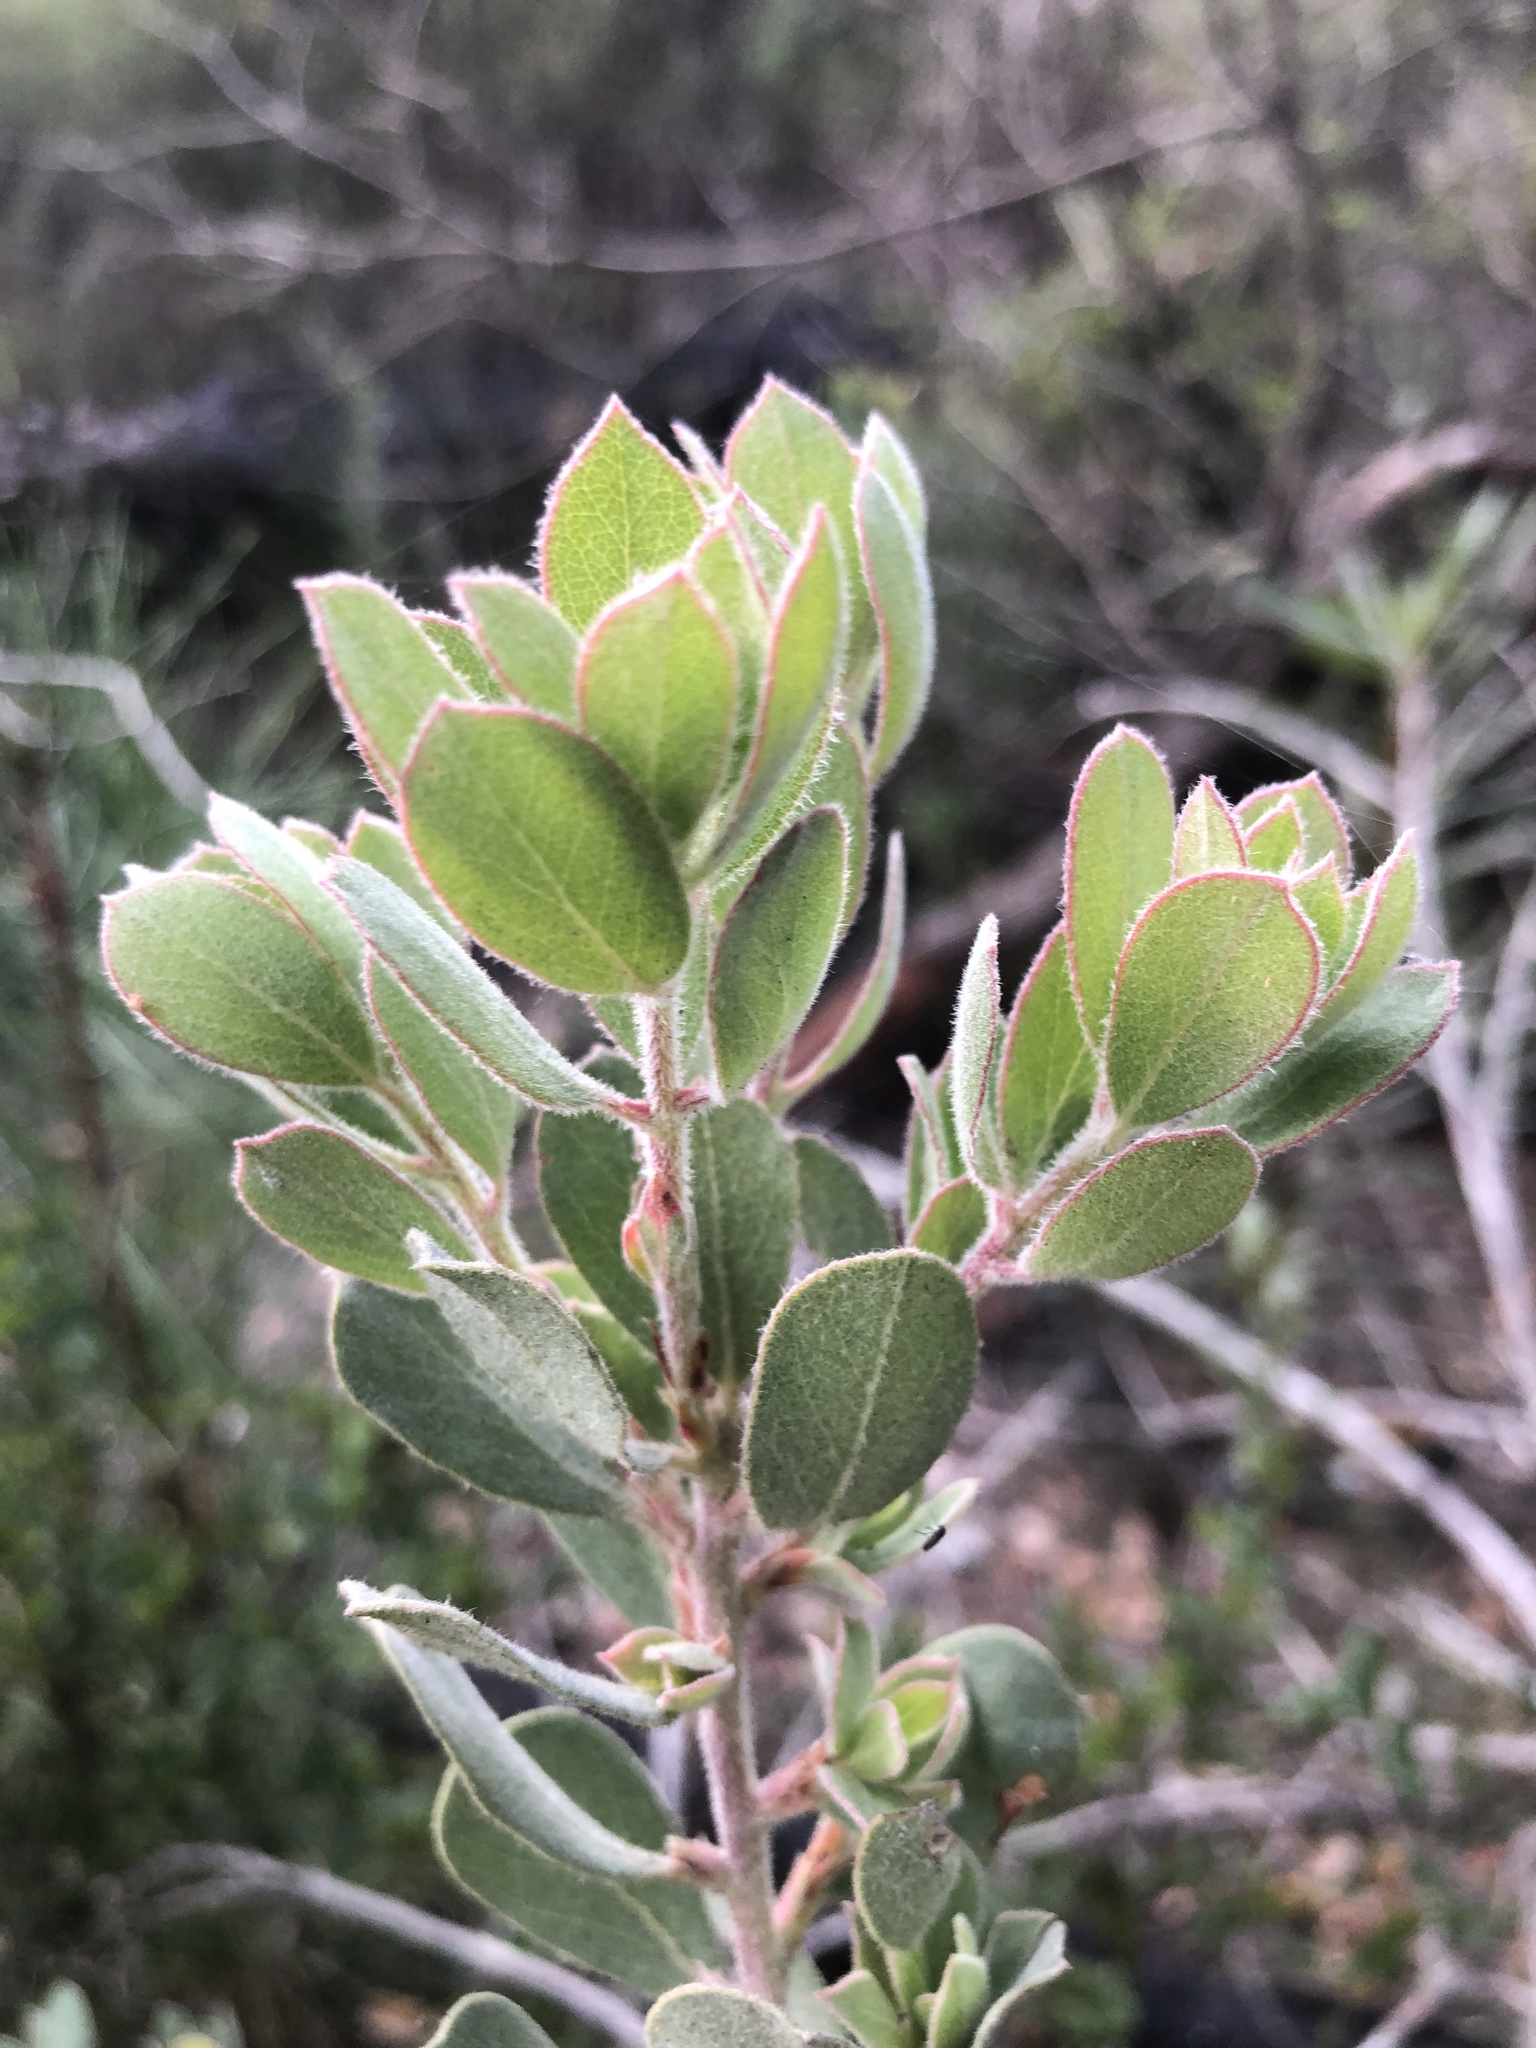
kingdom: Plantae
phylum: Tracheophyta
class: Magnoliopsida
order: Ericales
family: Ericaceae
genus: Arctostaphylos
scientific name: Arctostaphylos silvicola
